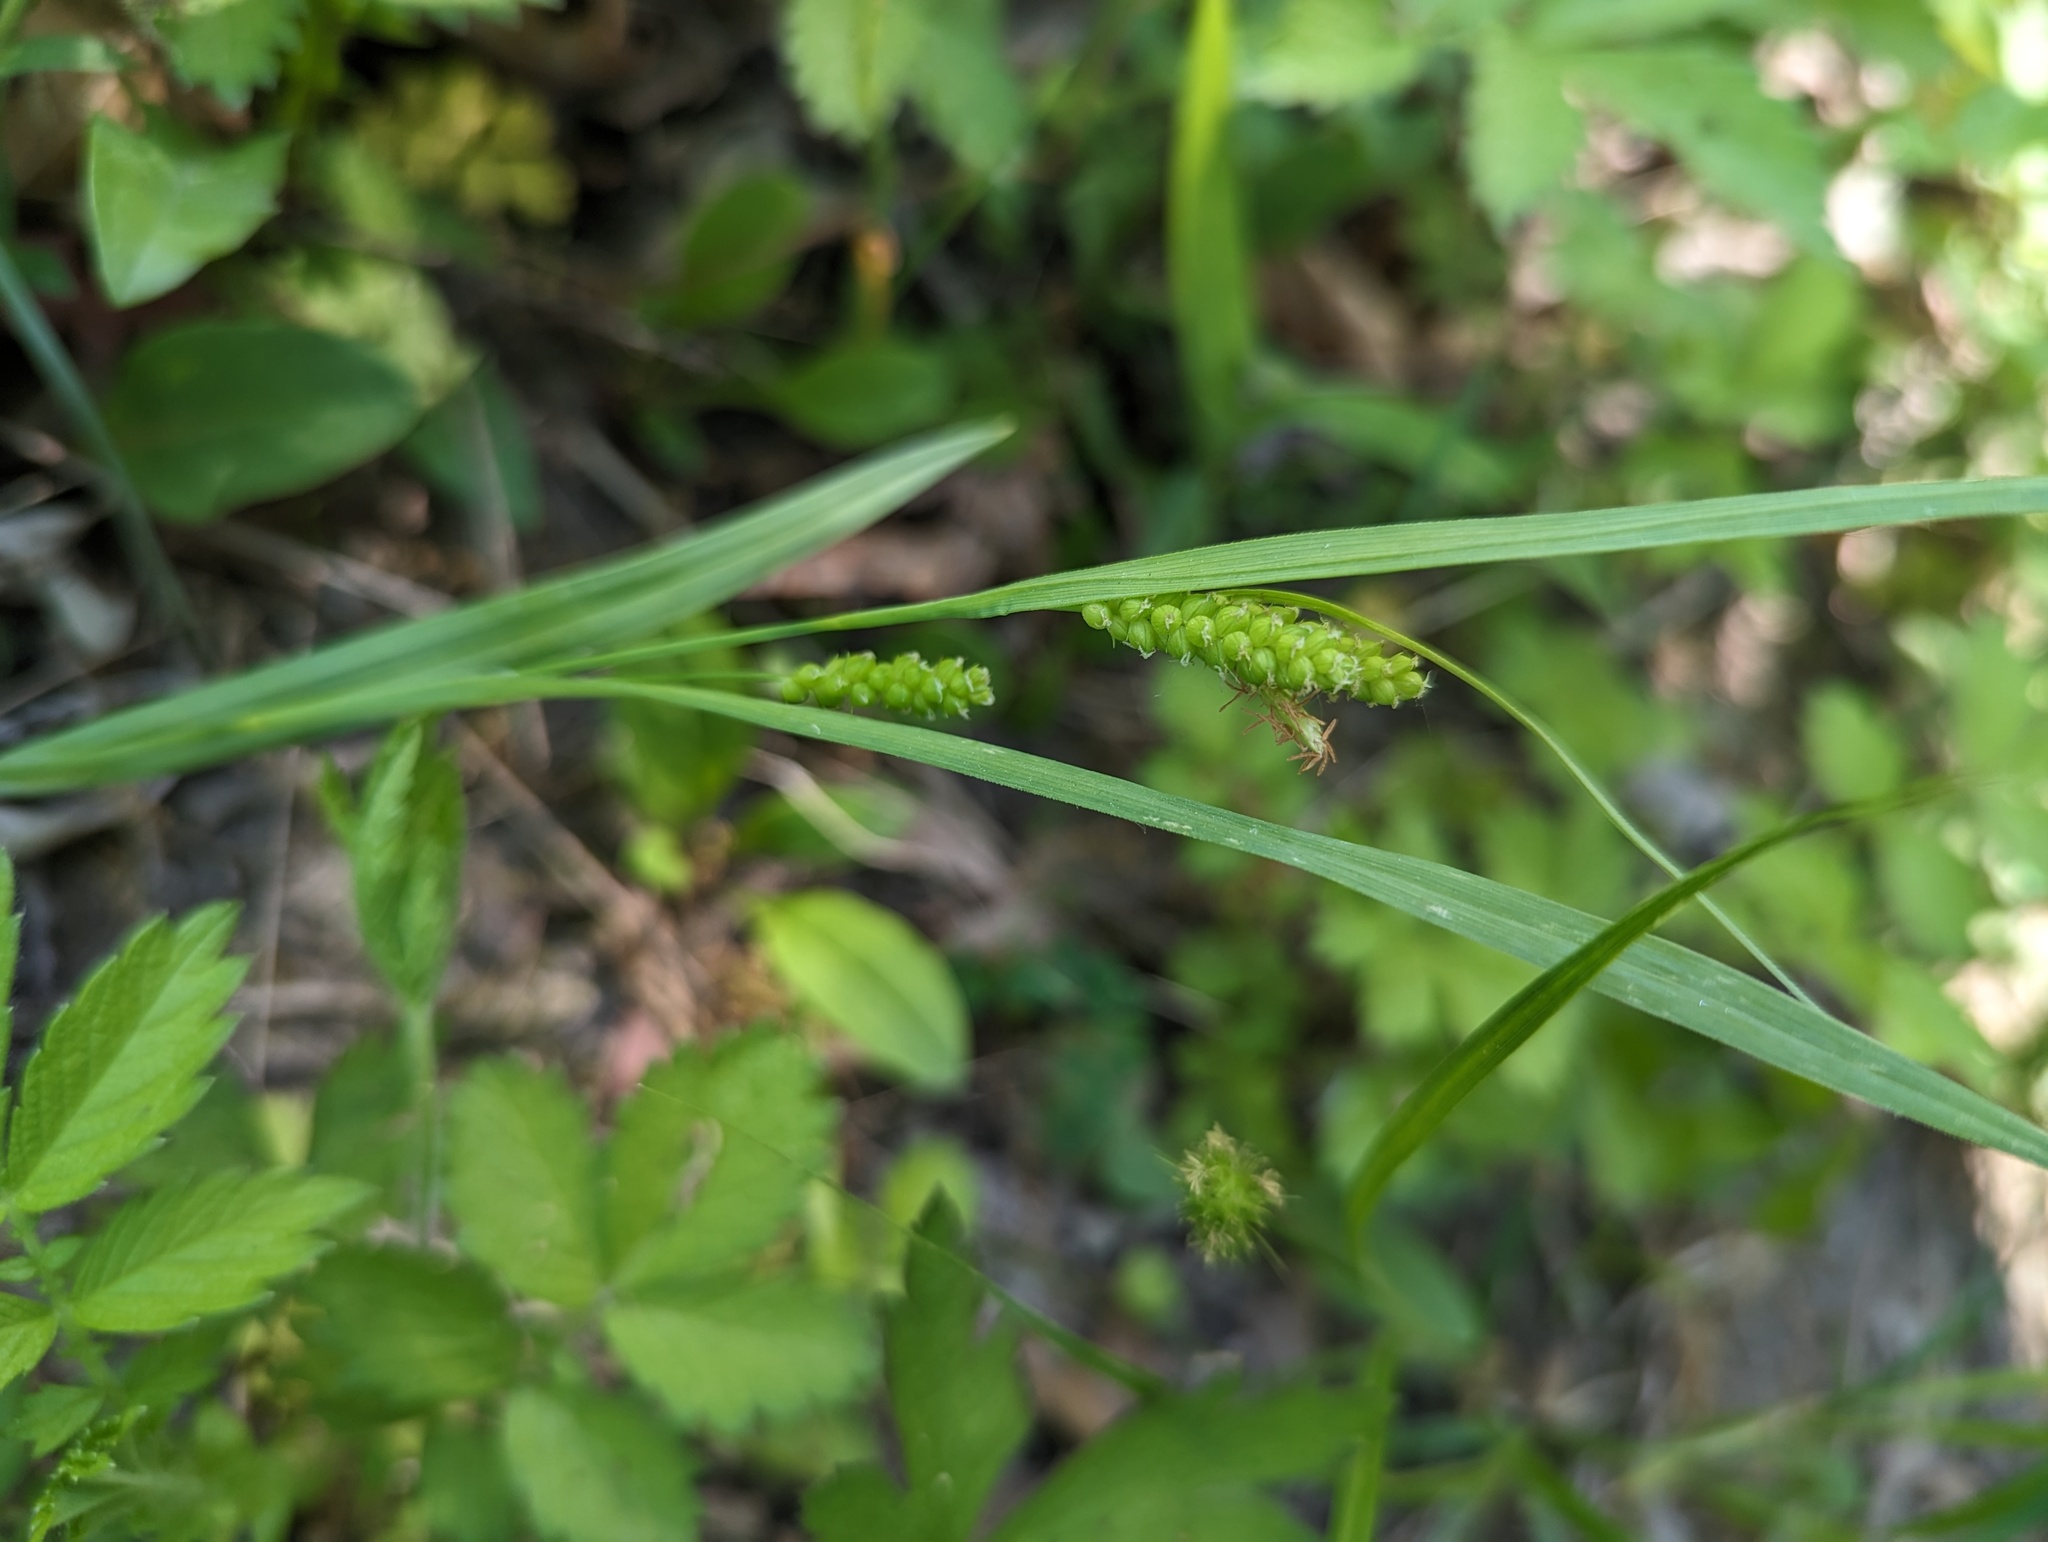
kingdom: Plantae
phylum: Tracheophyta
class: Liliopsida
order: Poales
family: Cyperaceae
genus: Carex
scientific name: Carex granularis
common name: Granular sedge
